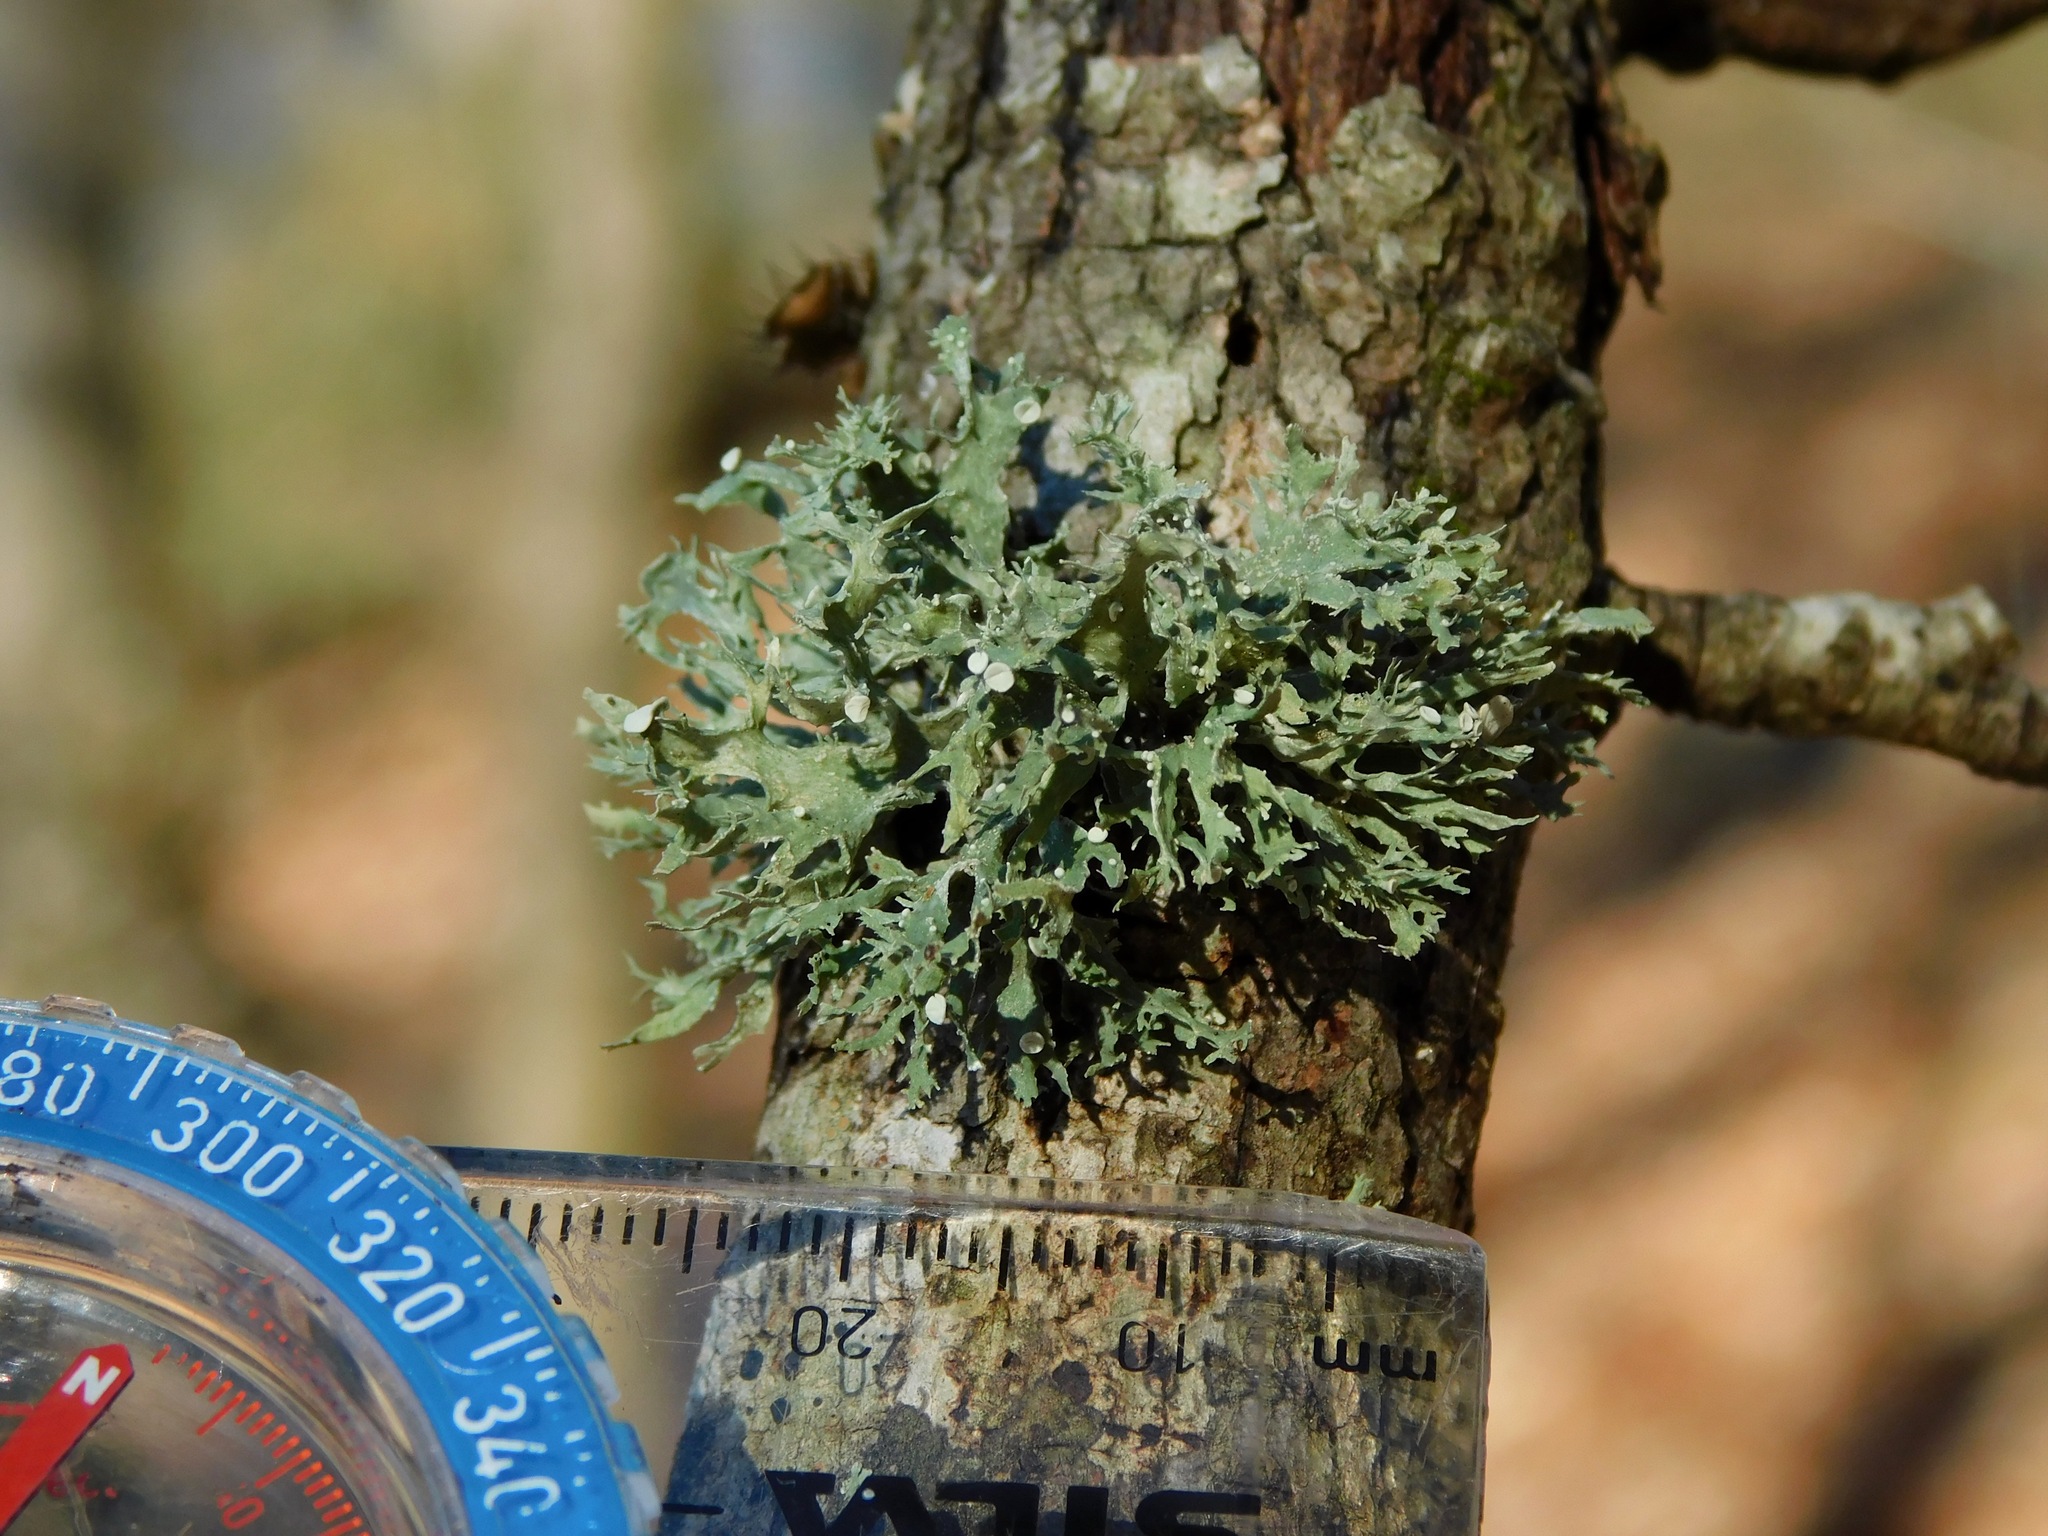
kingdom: Fungi
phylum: Ascomycota
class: Lecanoromycetes
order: Lecanorales
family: Ramalinaceae
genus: Ramalina
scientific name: Ramalina americana
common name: Sinewed bush lichen
